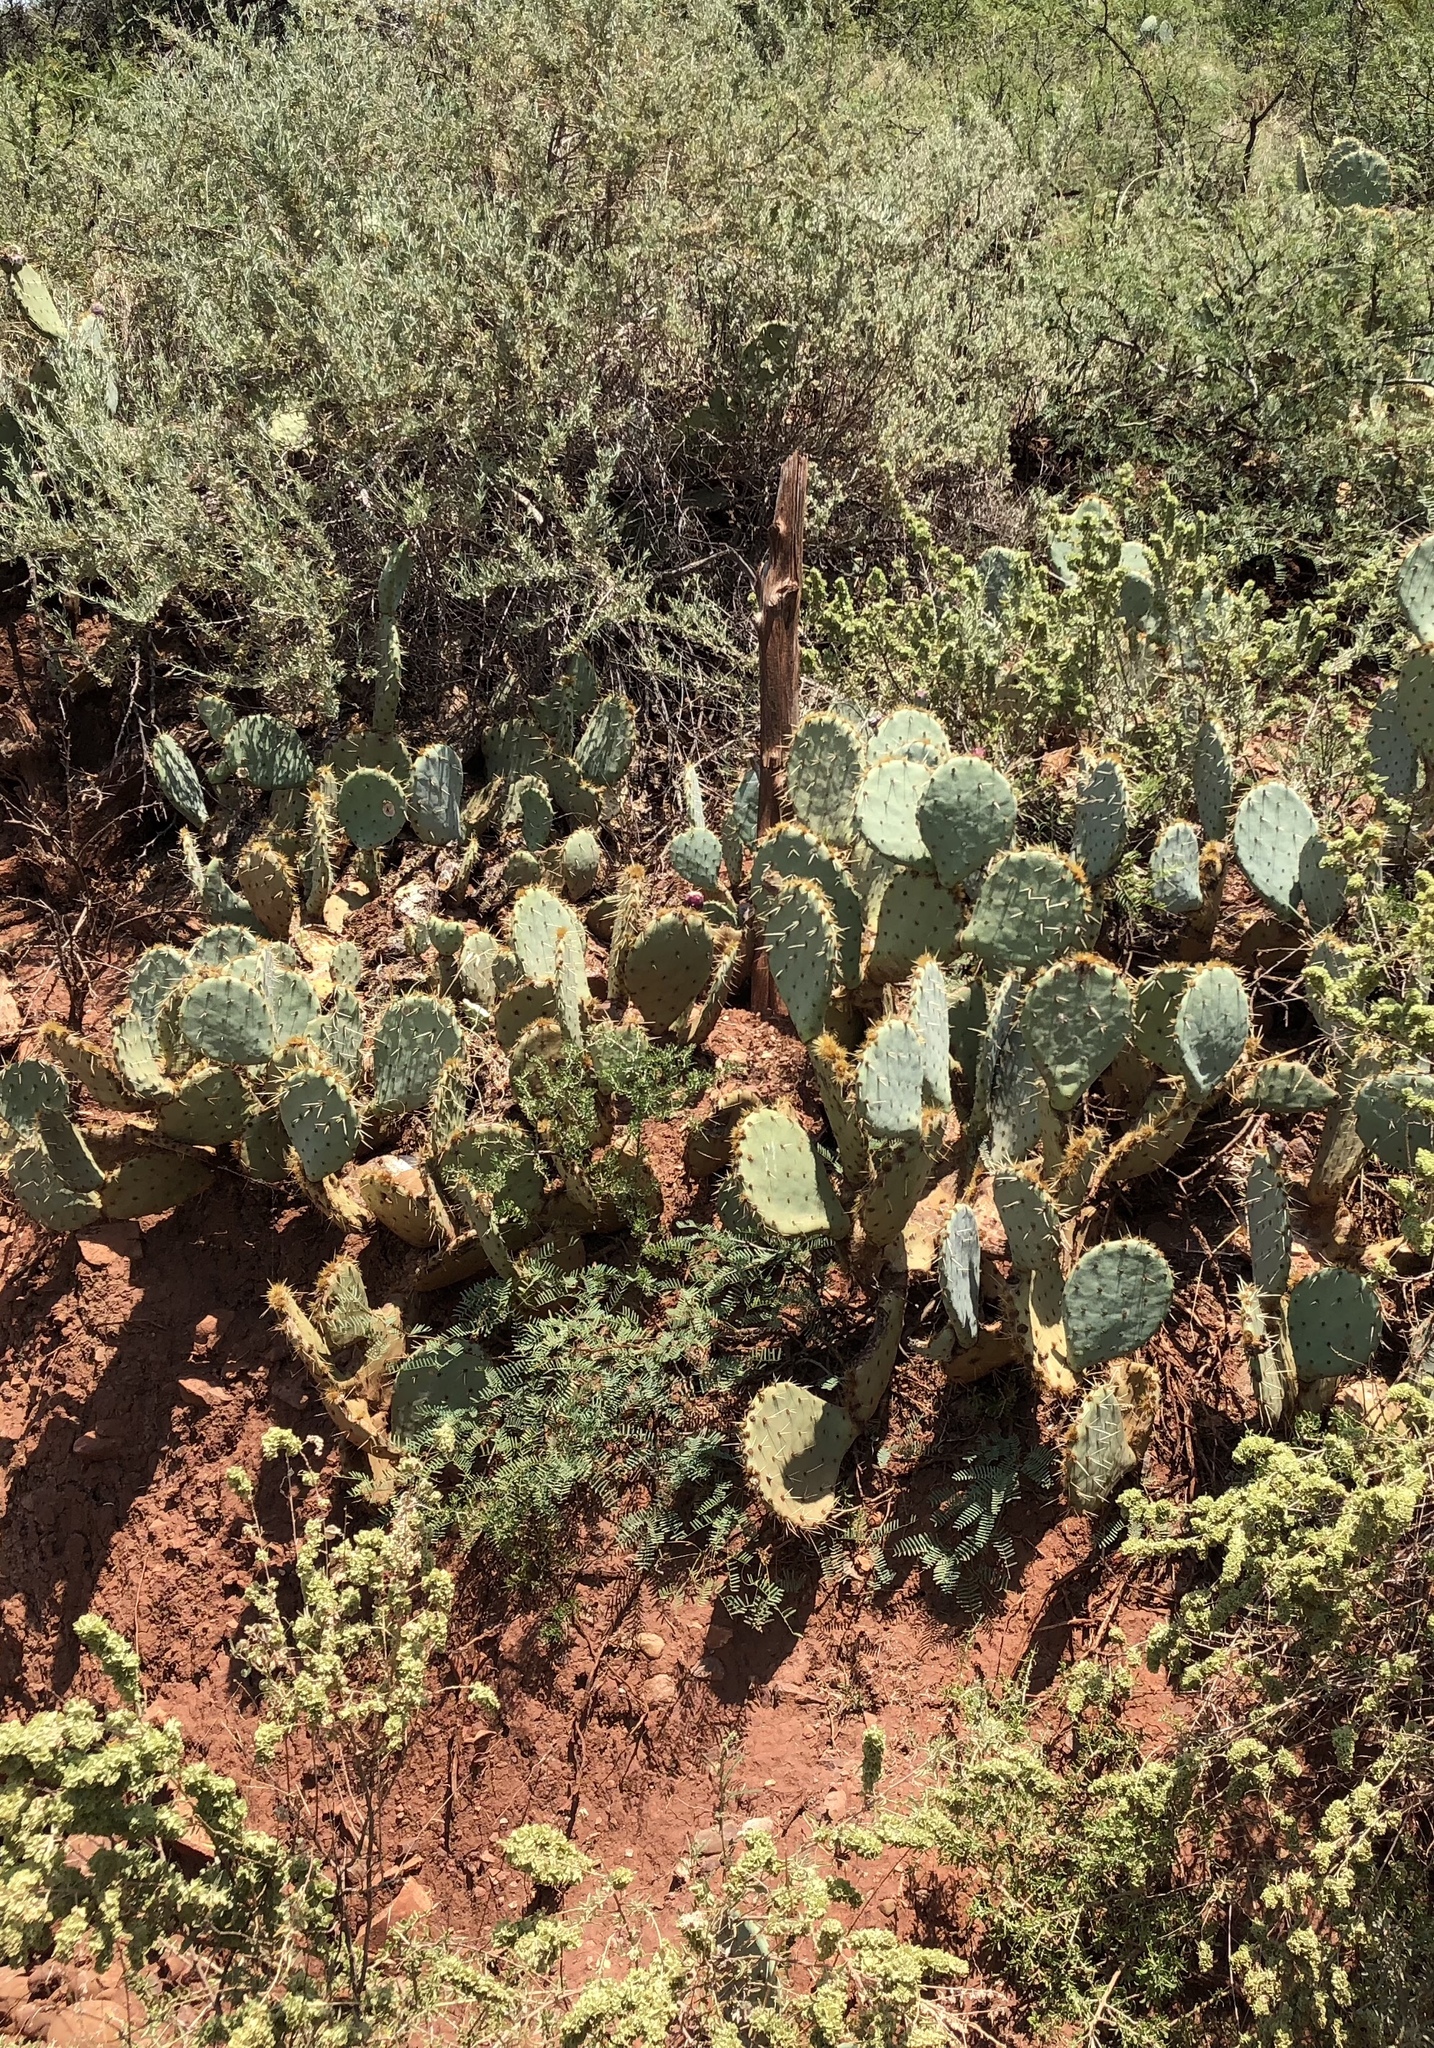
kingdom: Plantae
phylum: Tracheophyta
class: Magnoliopsida
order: Caryophyllales
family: Cactaceae
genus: Opuntia
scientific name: Opuntia phaeacantha
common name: New mexico prickly-pear
